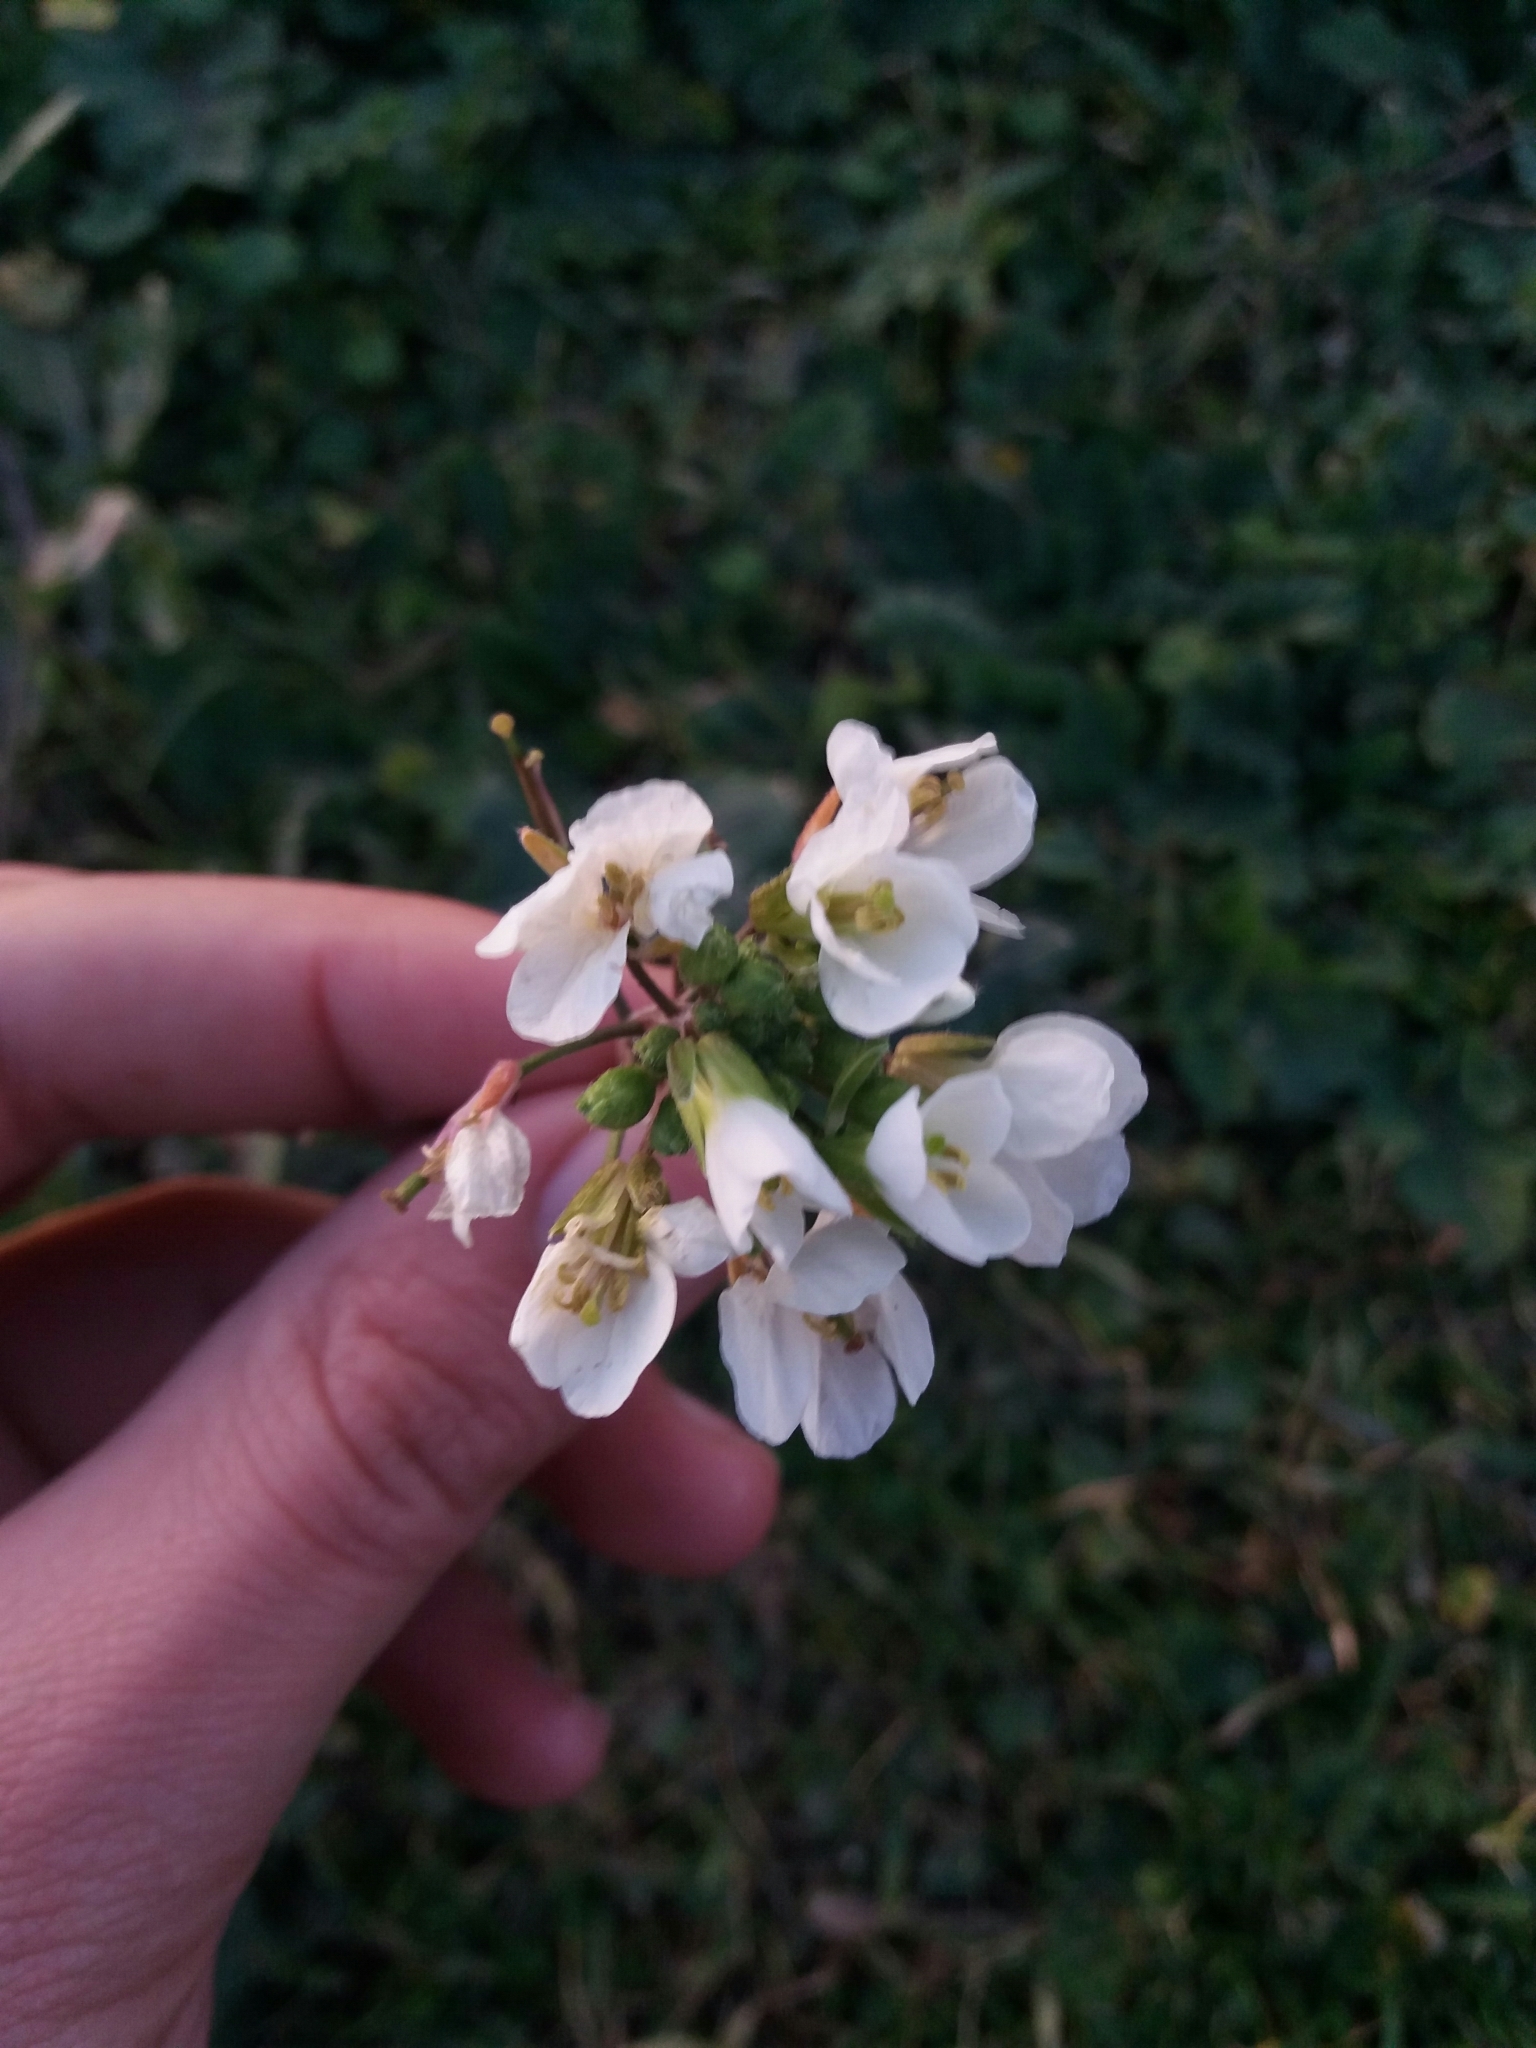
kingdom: Plantae
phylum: Tracheophyta
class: Magnoliopsida
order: Brassicales
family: Brassicaceae
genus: Diplotaxis
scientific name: Diplotaxis erucoides
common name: White rocket
